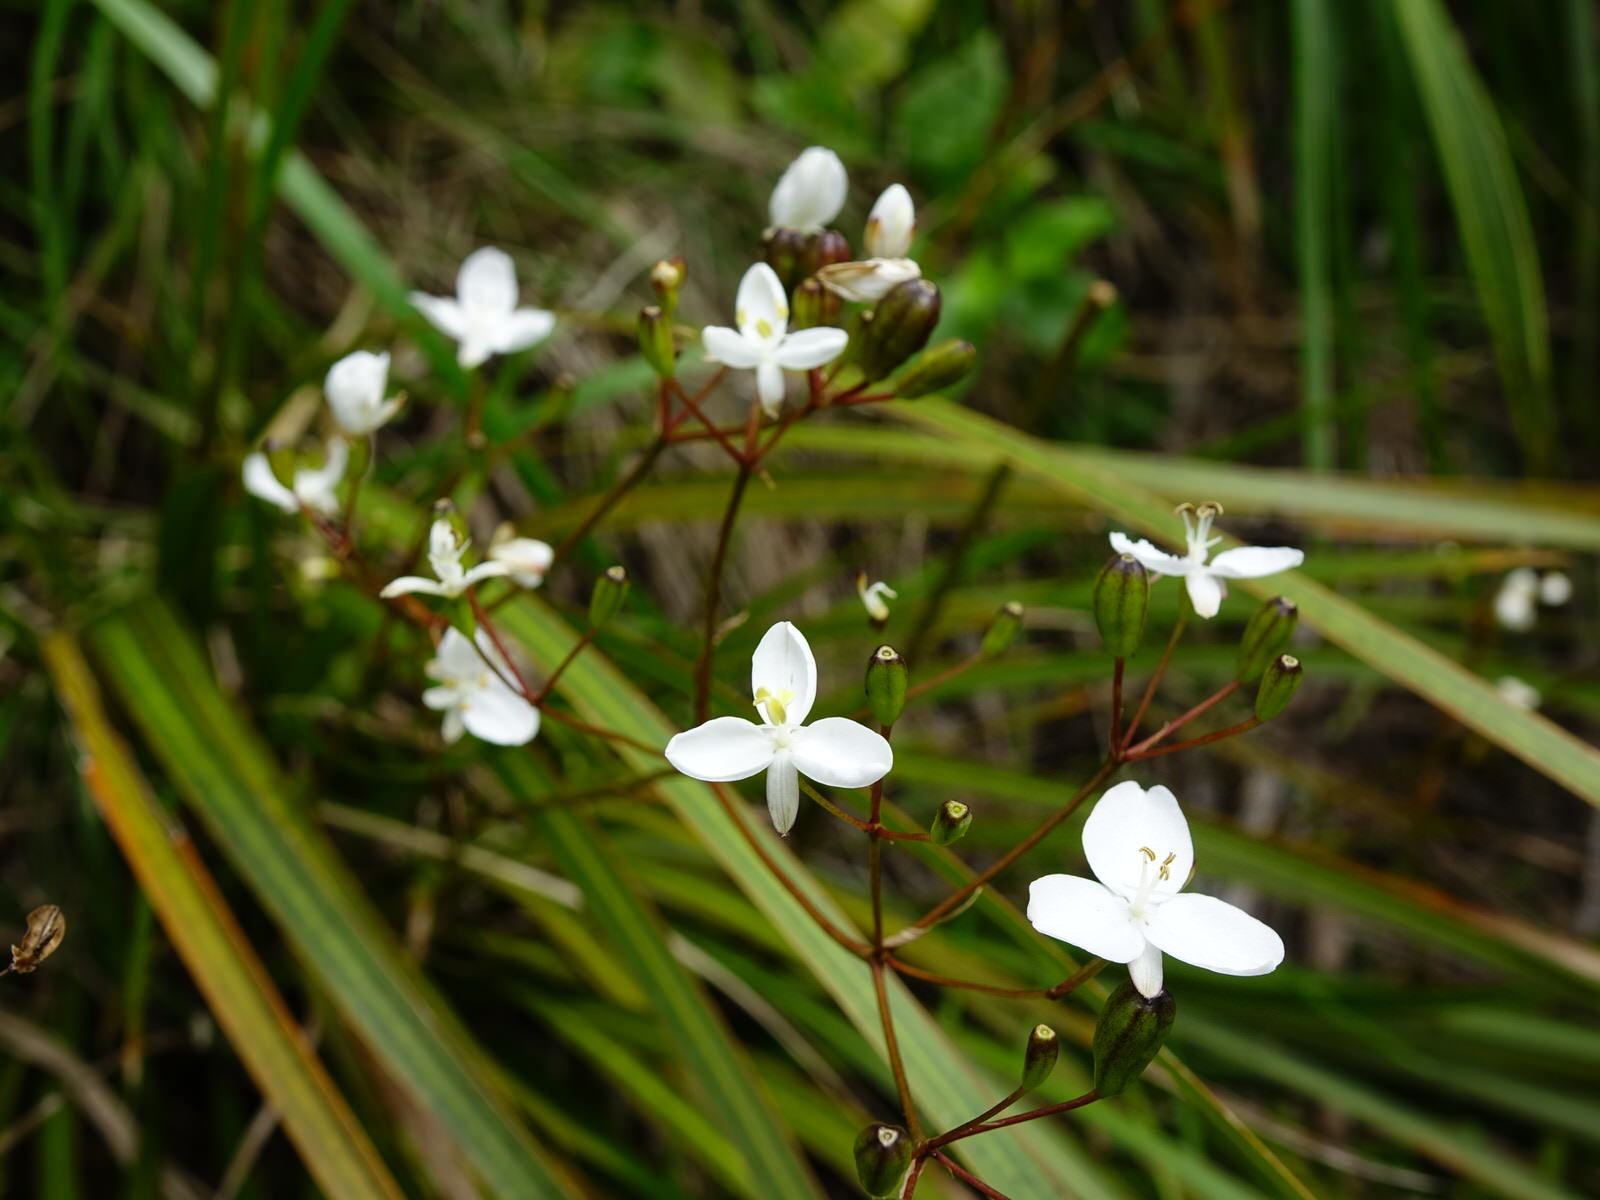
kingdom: Plantae
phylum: Tracheophyta
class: Liliopsida
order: Asparagales
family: Iridaceae
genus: Libertia
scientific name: Libertia grandiflora
